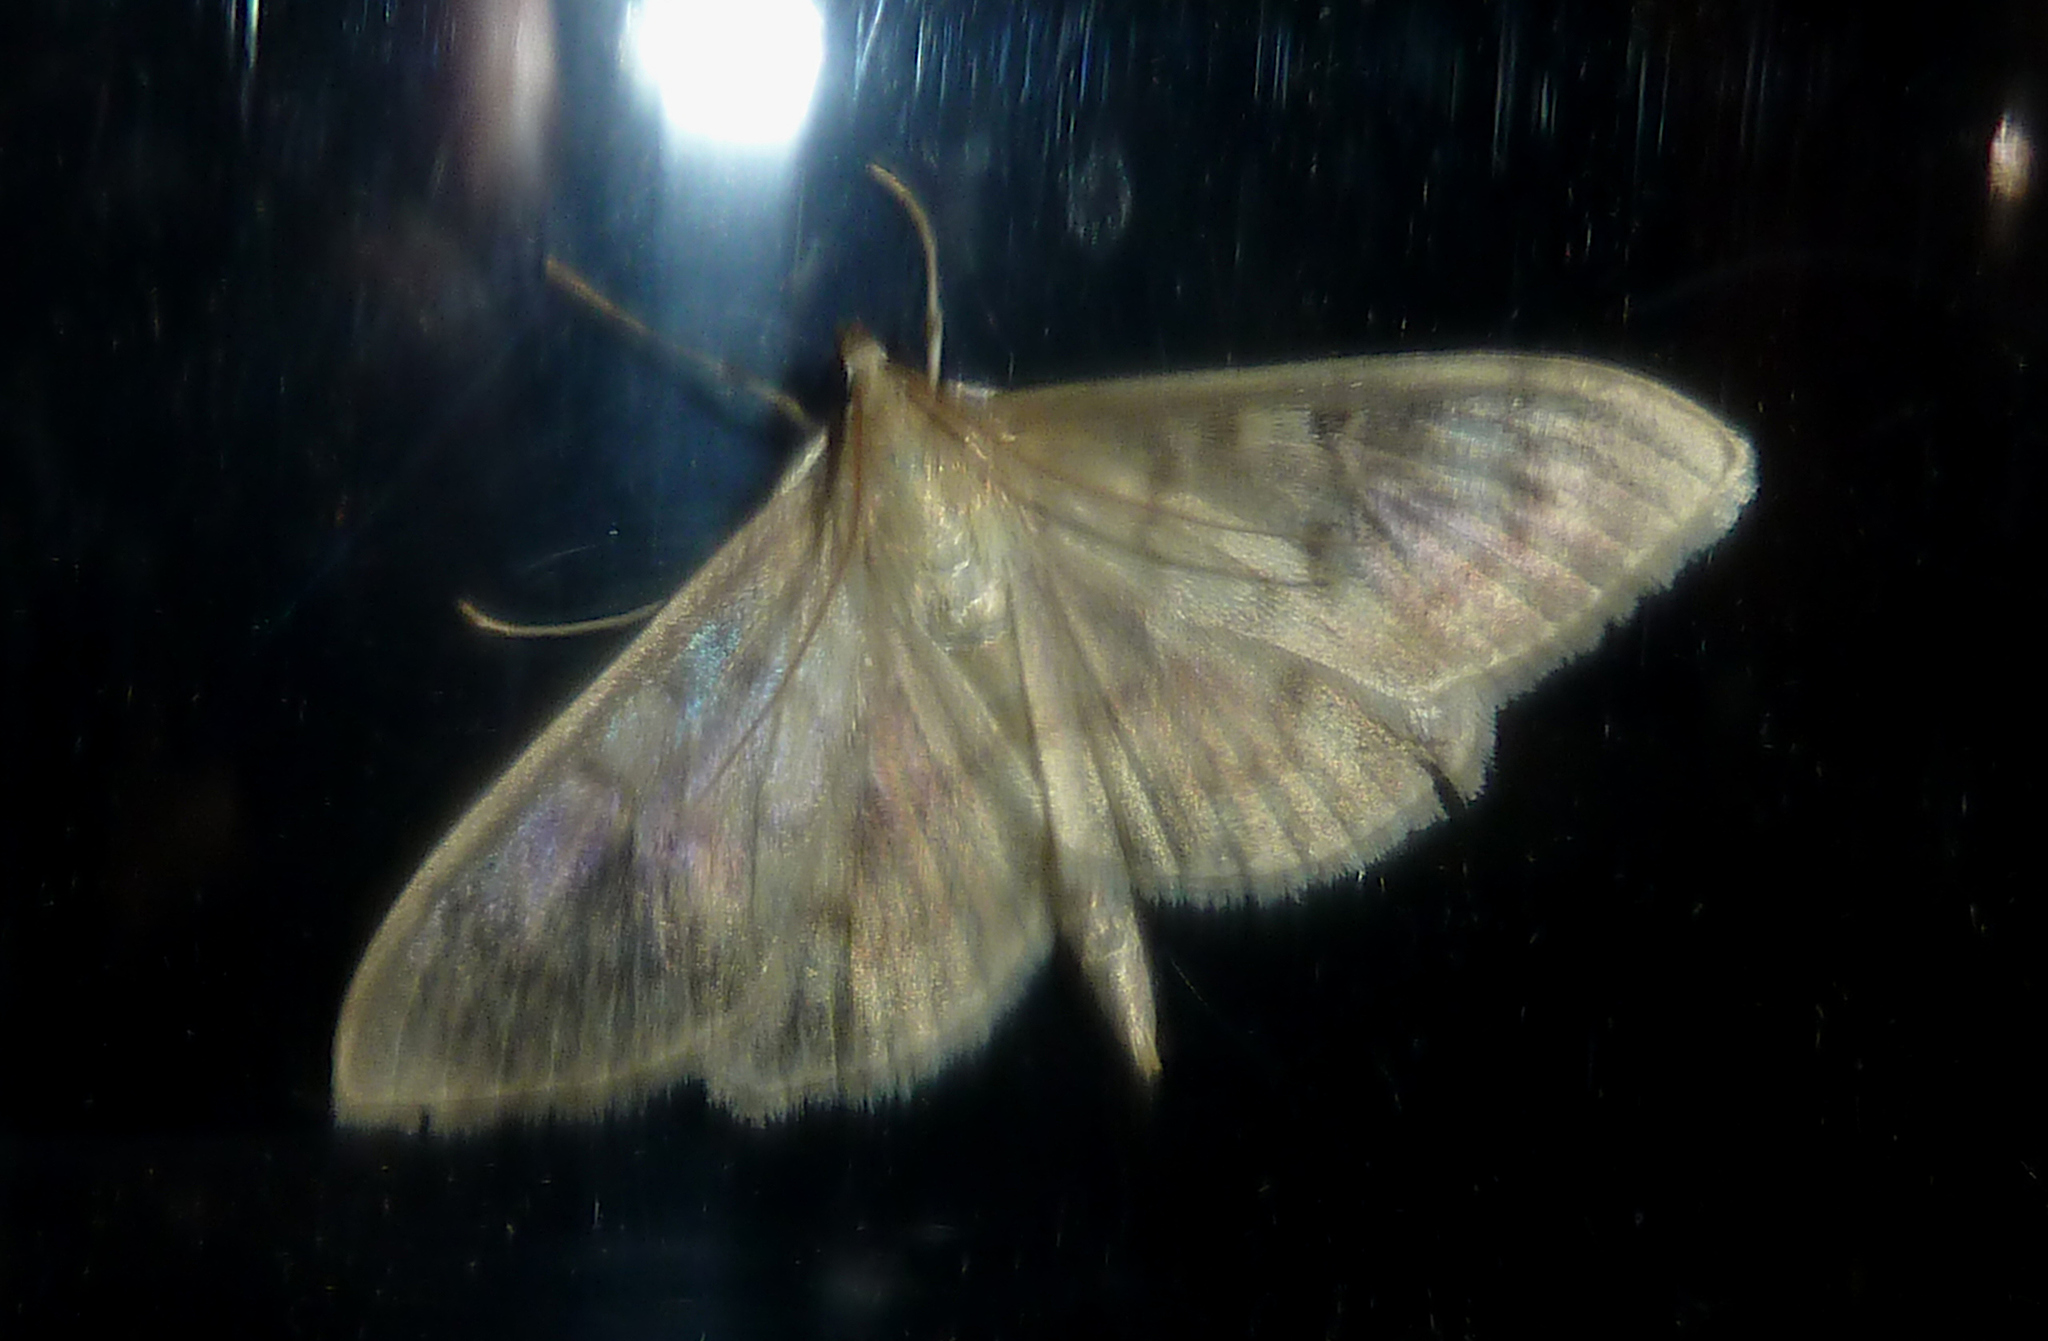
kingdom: Animalia
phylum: Arthropoda
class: Insecta
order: Lepidoptera
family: Crambidae
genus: Patania
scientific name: Patania ruralis
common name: Mother of pearl
